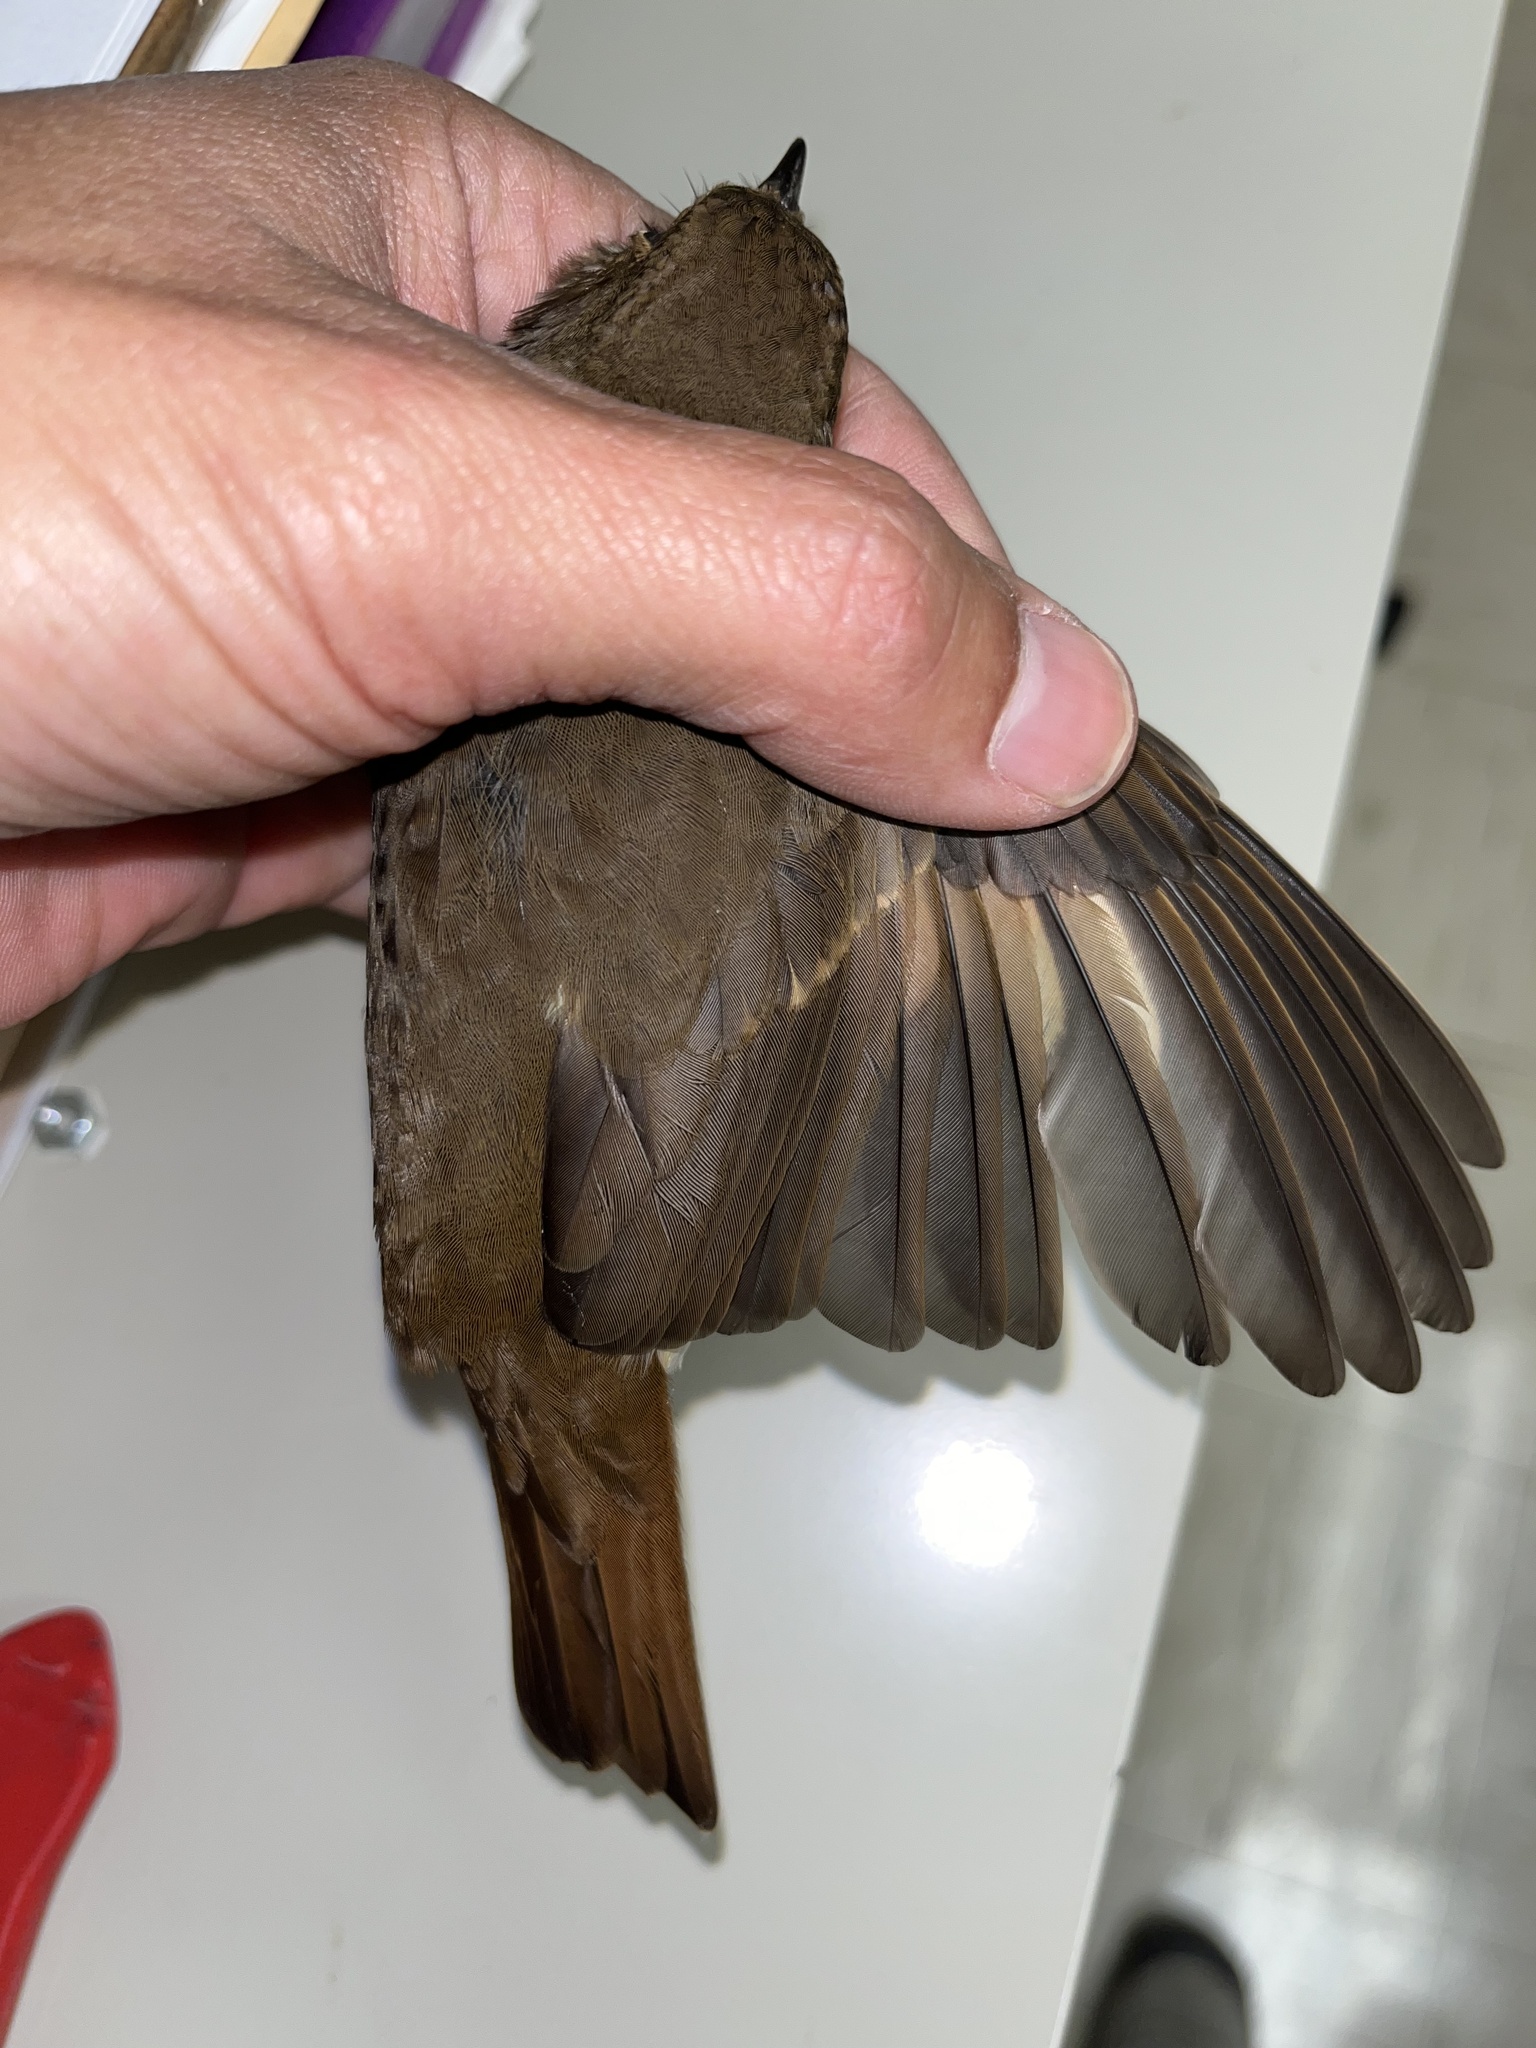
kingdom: Animalia
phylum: Chordata
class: Aves
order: Passeriformes
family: Turdidae
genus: Catharus
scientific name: Catharus guttatus
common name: Hermit thrush
